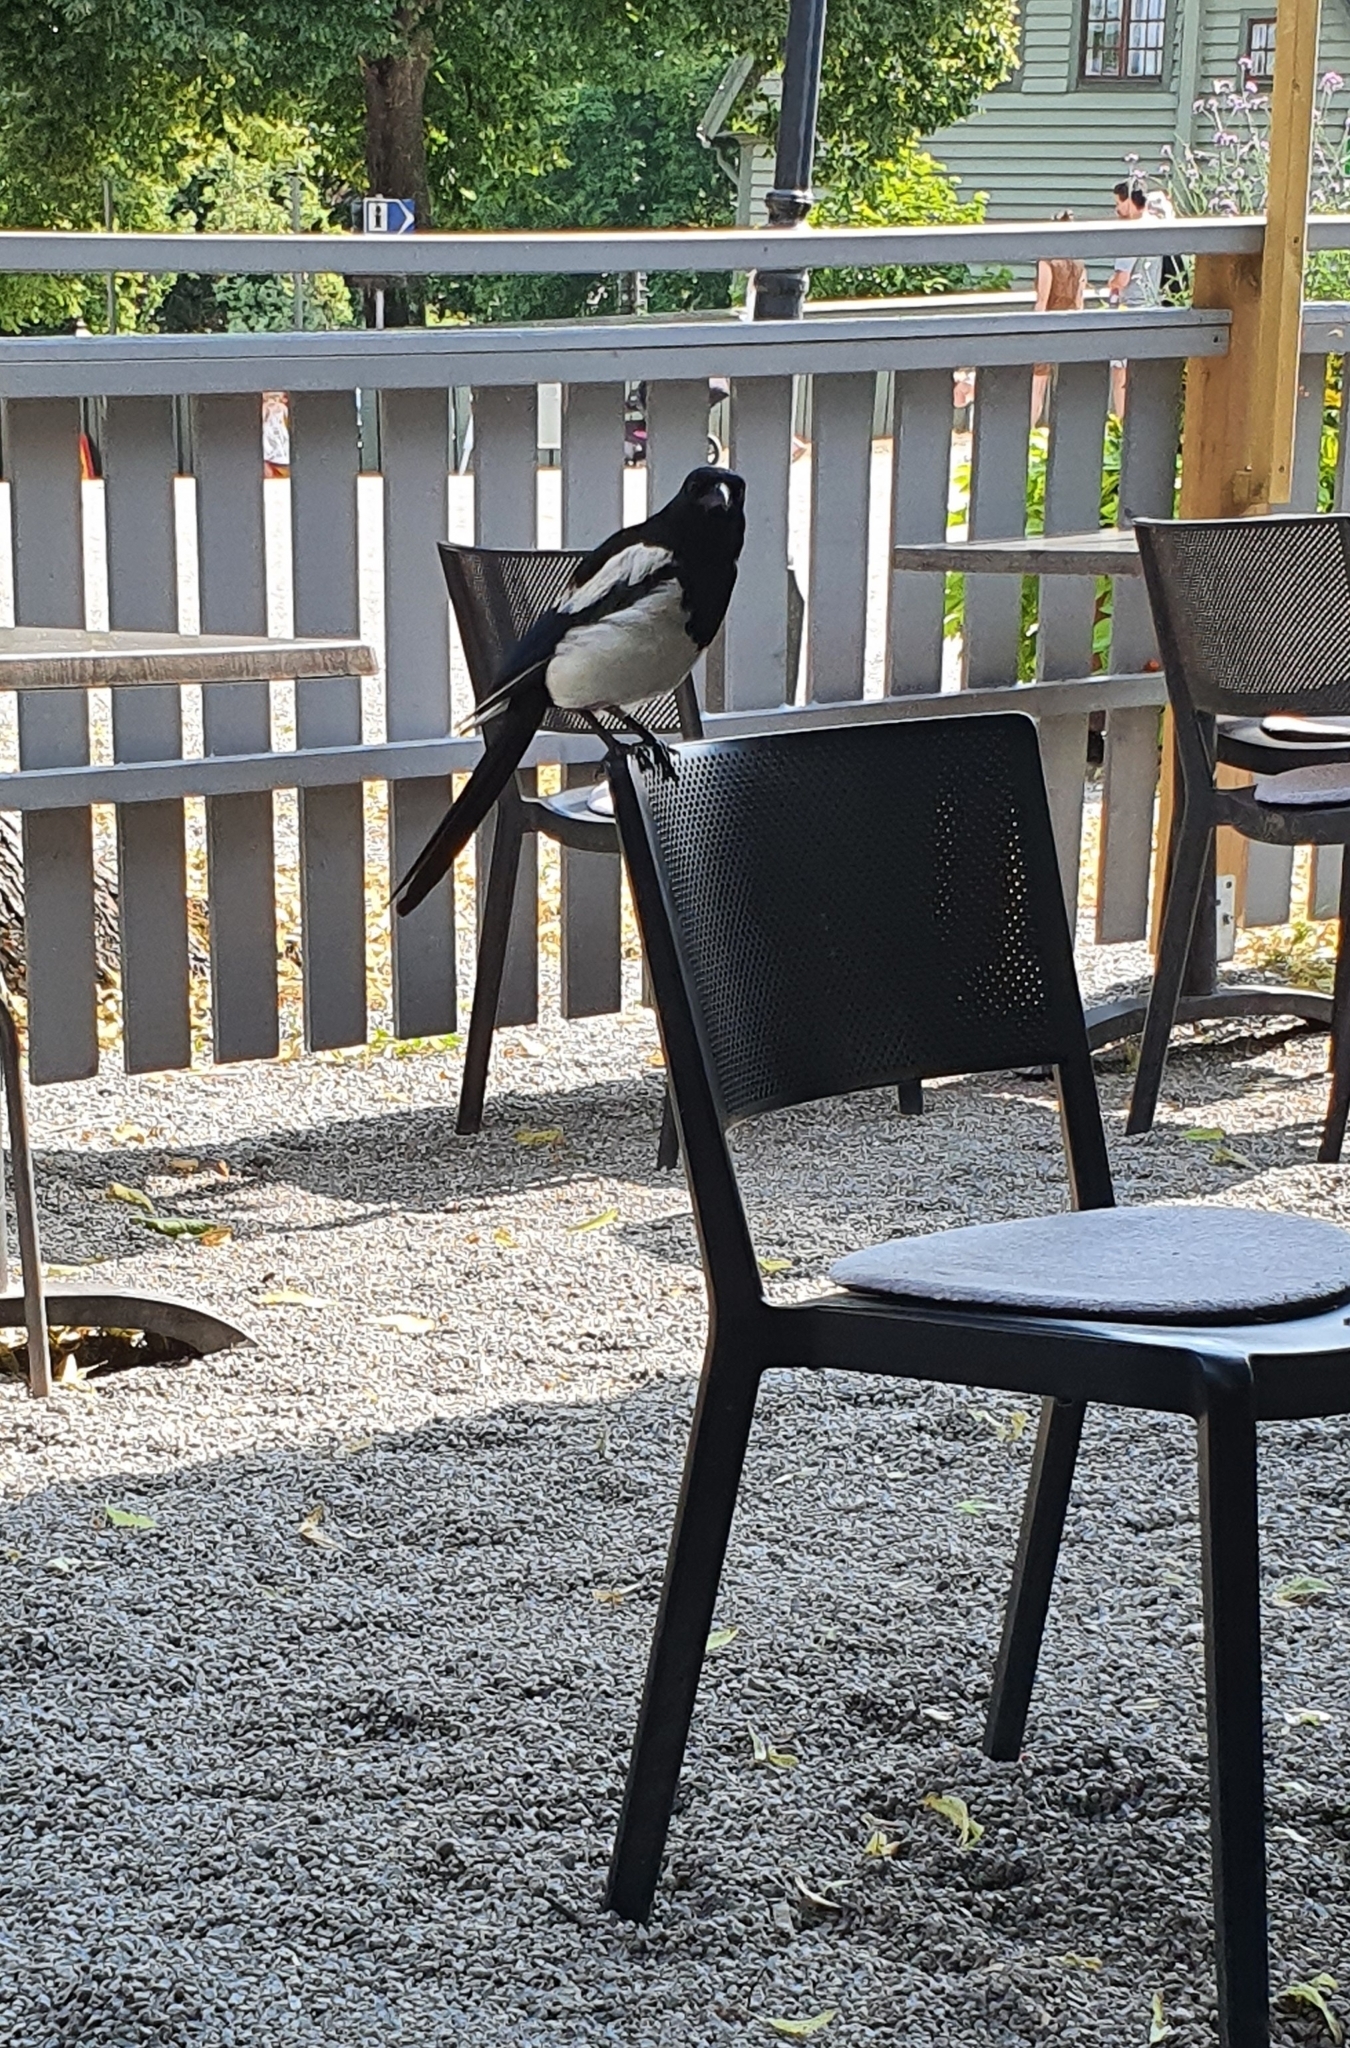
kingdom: Animalia
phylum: Chordata
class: Aves
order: Passeriformes
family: Corvidae
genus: Pica
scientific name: Pica pica
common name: Eurasian magpie
